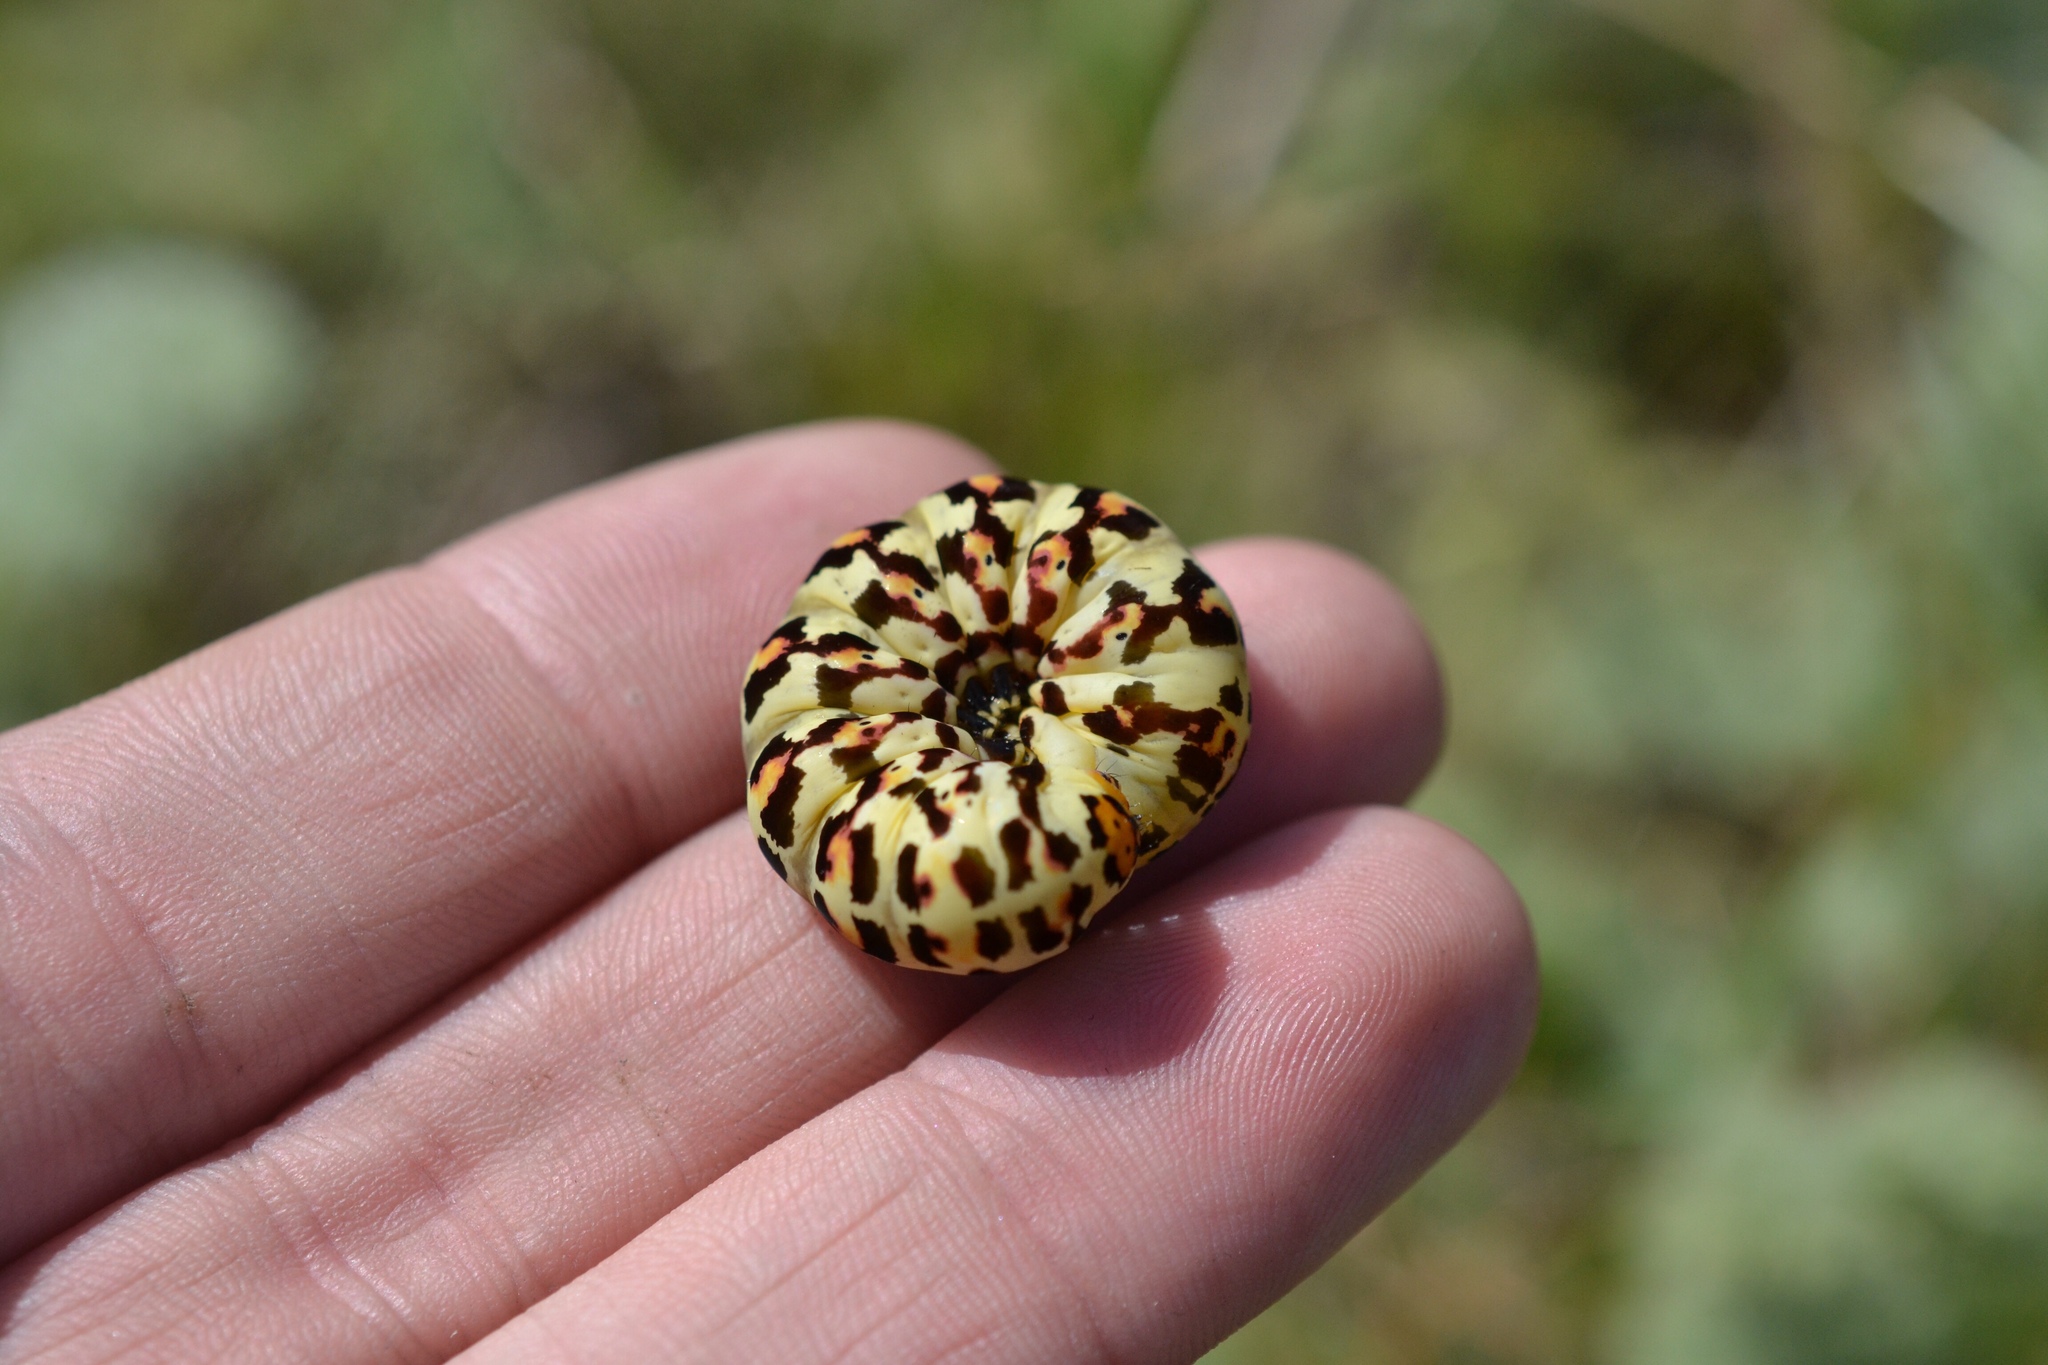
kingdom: Animalia
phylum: Arthropoda
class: Insecta
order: Lepidoptera
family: Noctuidae
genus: Diaphone
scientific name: Diaphone eumela
